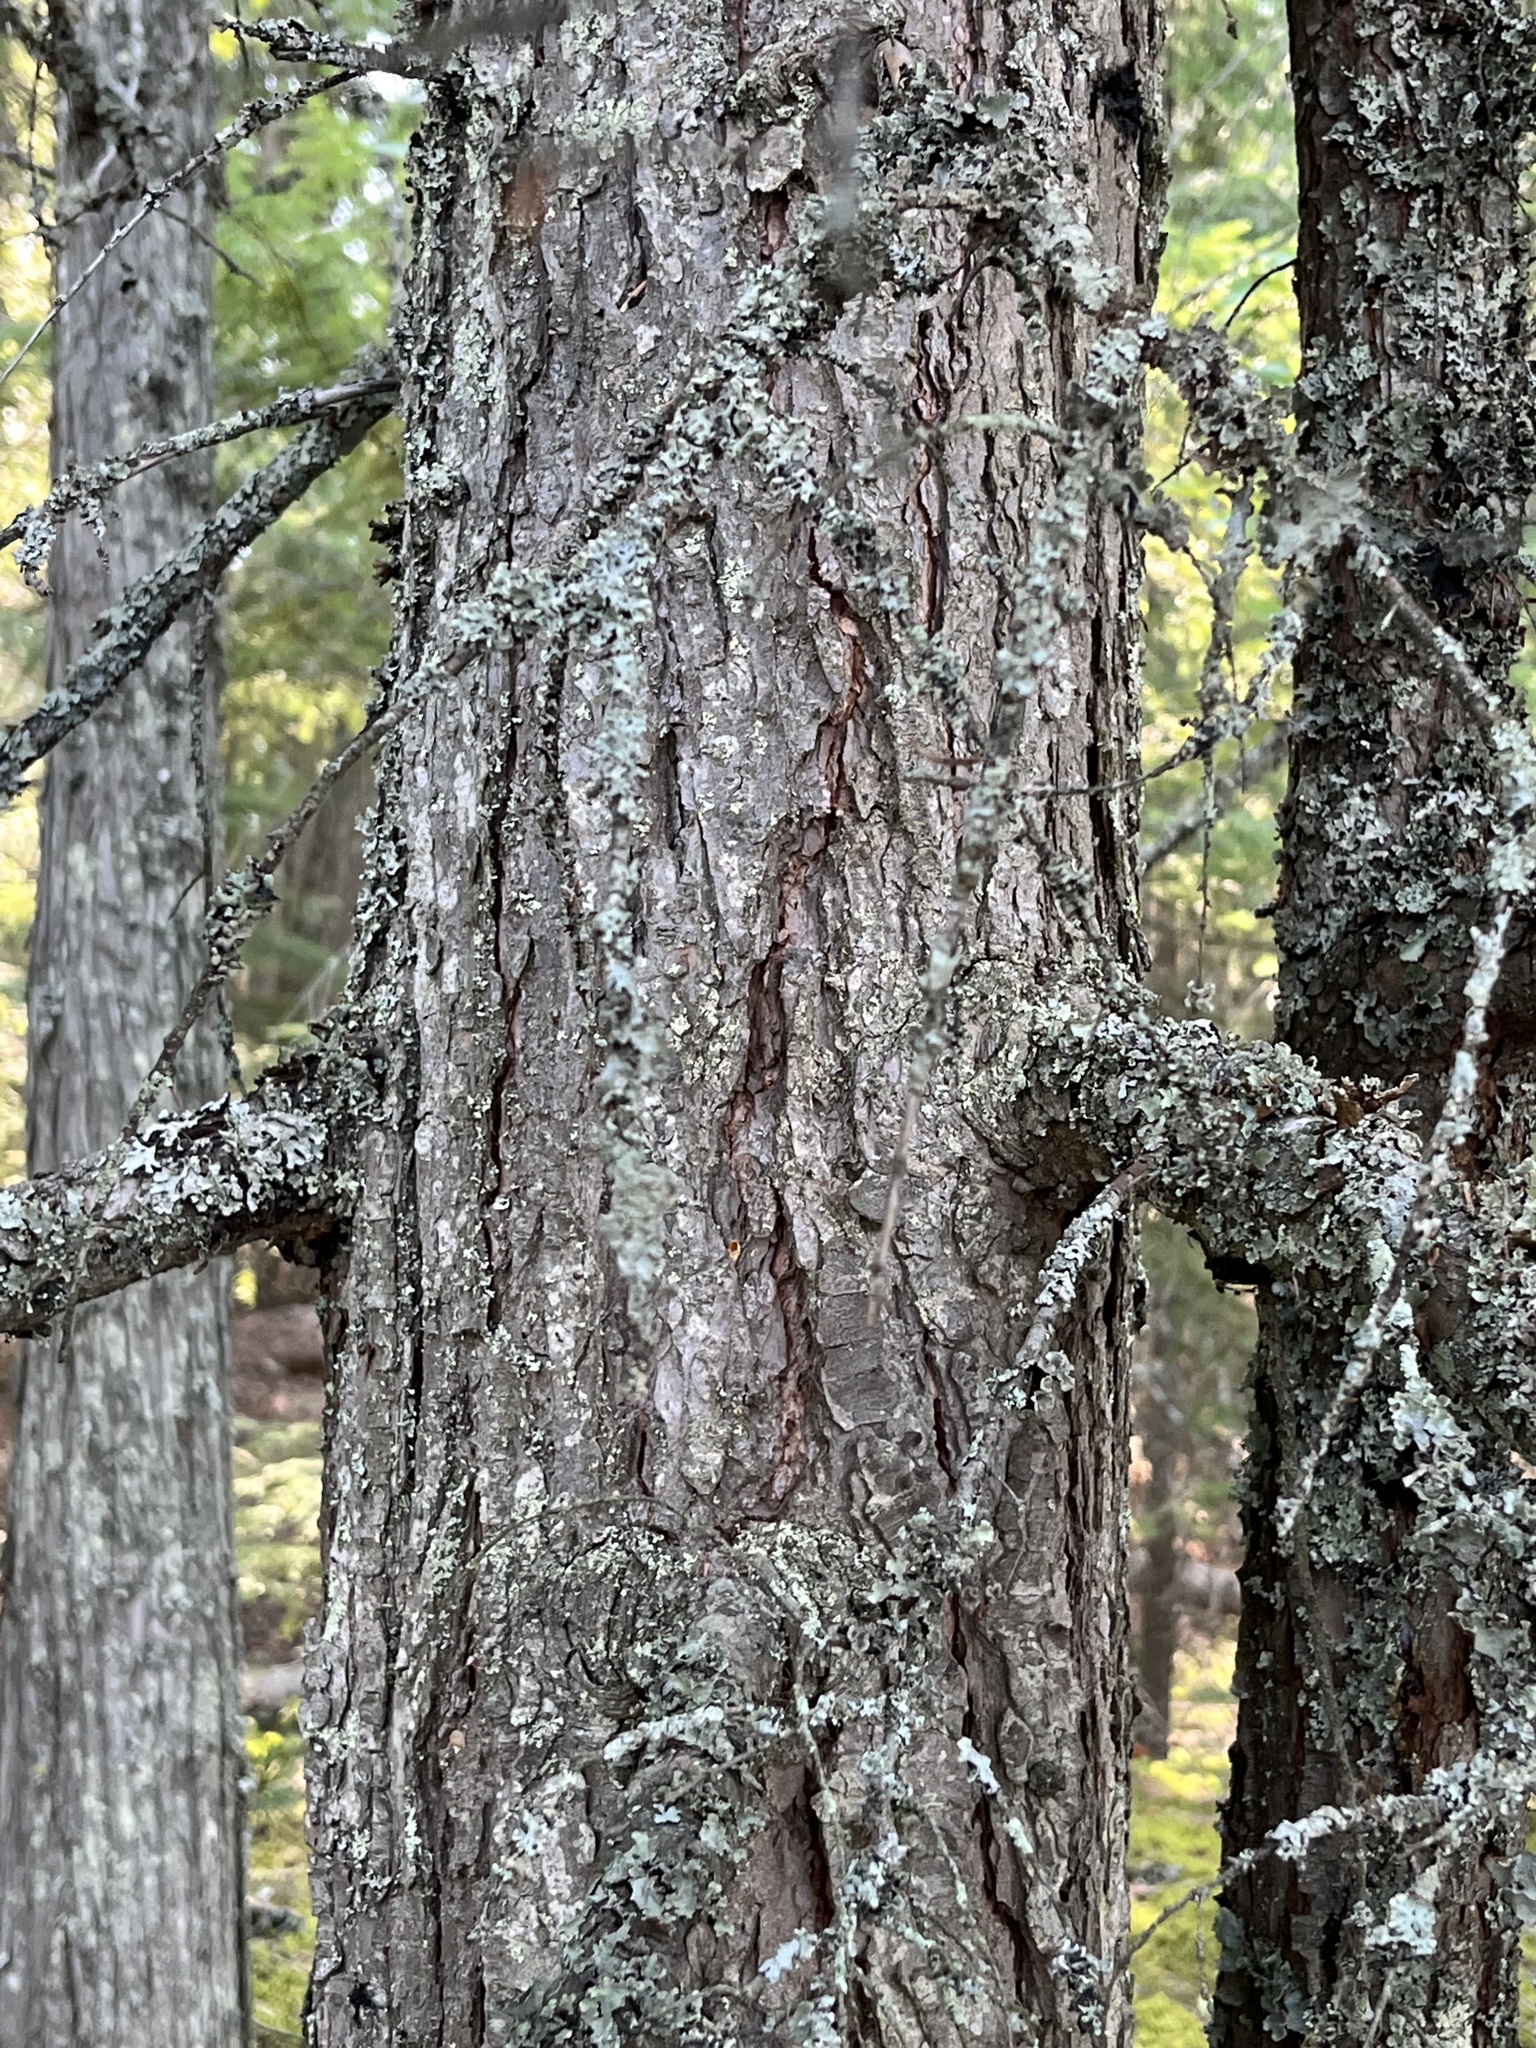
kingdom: Plantae
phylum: Tracheophyta
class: Pinopsida
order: Pinales
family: Pinaceae
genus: Tsuga
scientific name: Tsuga heterophylla
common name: Western hemlock
